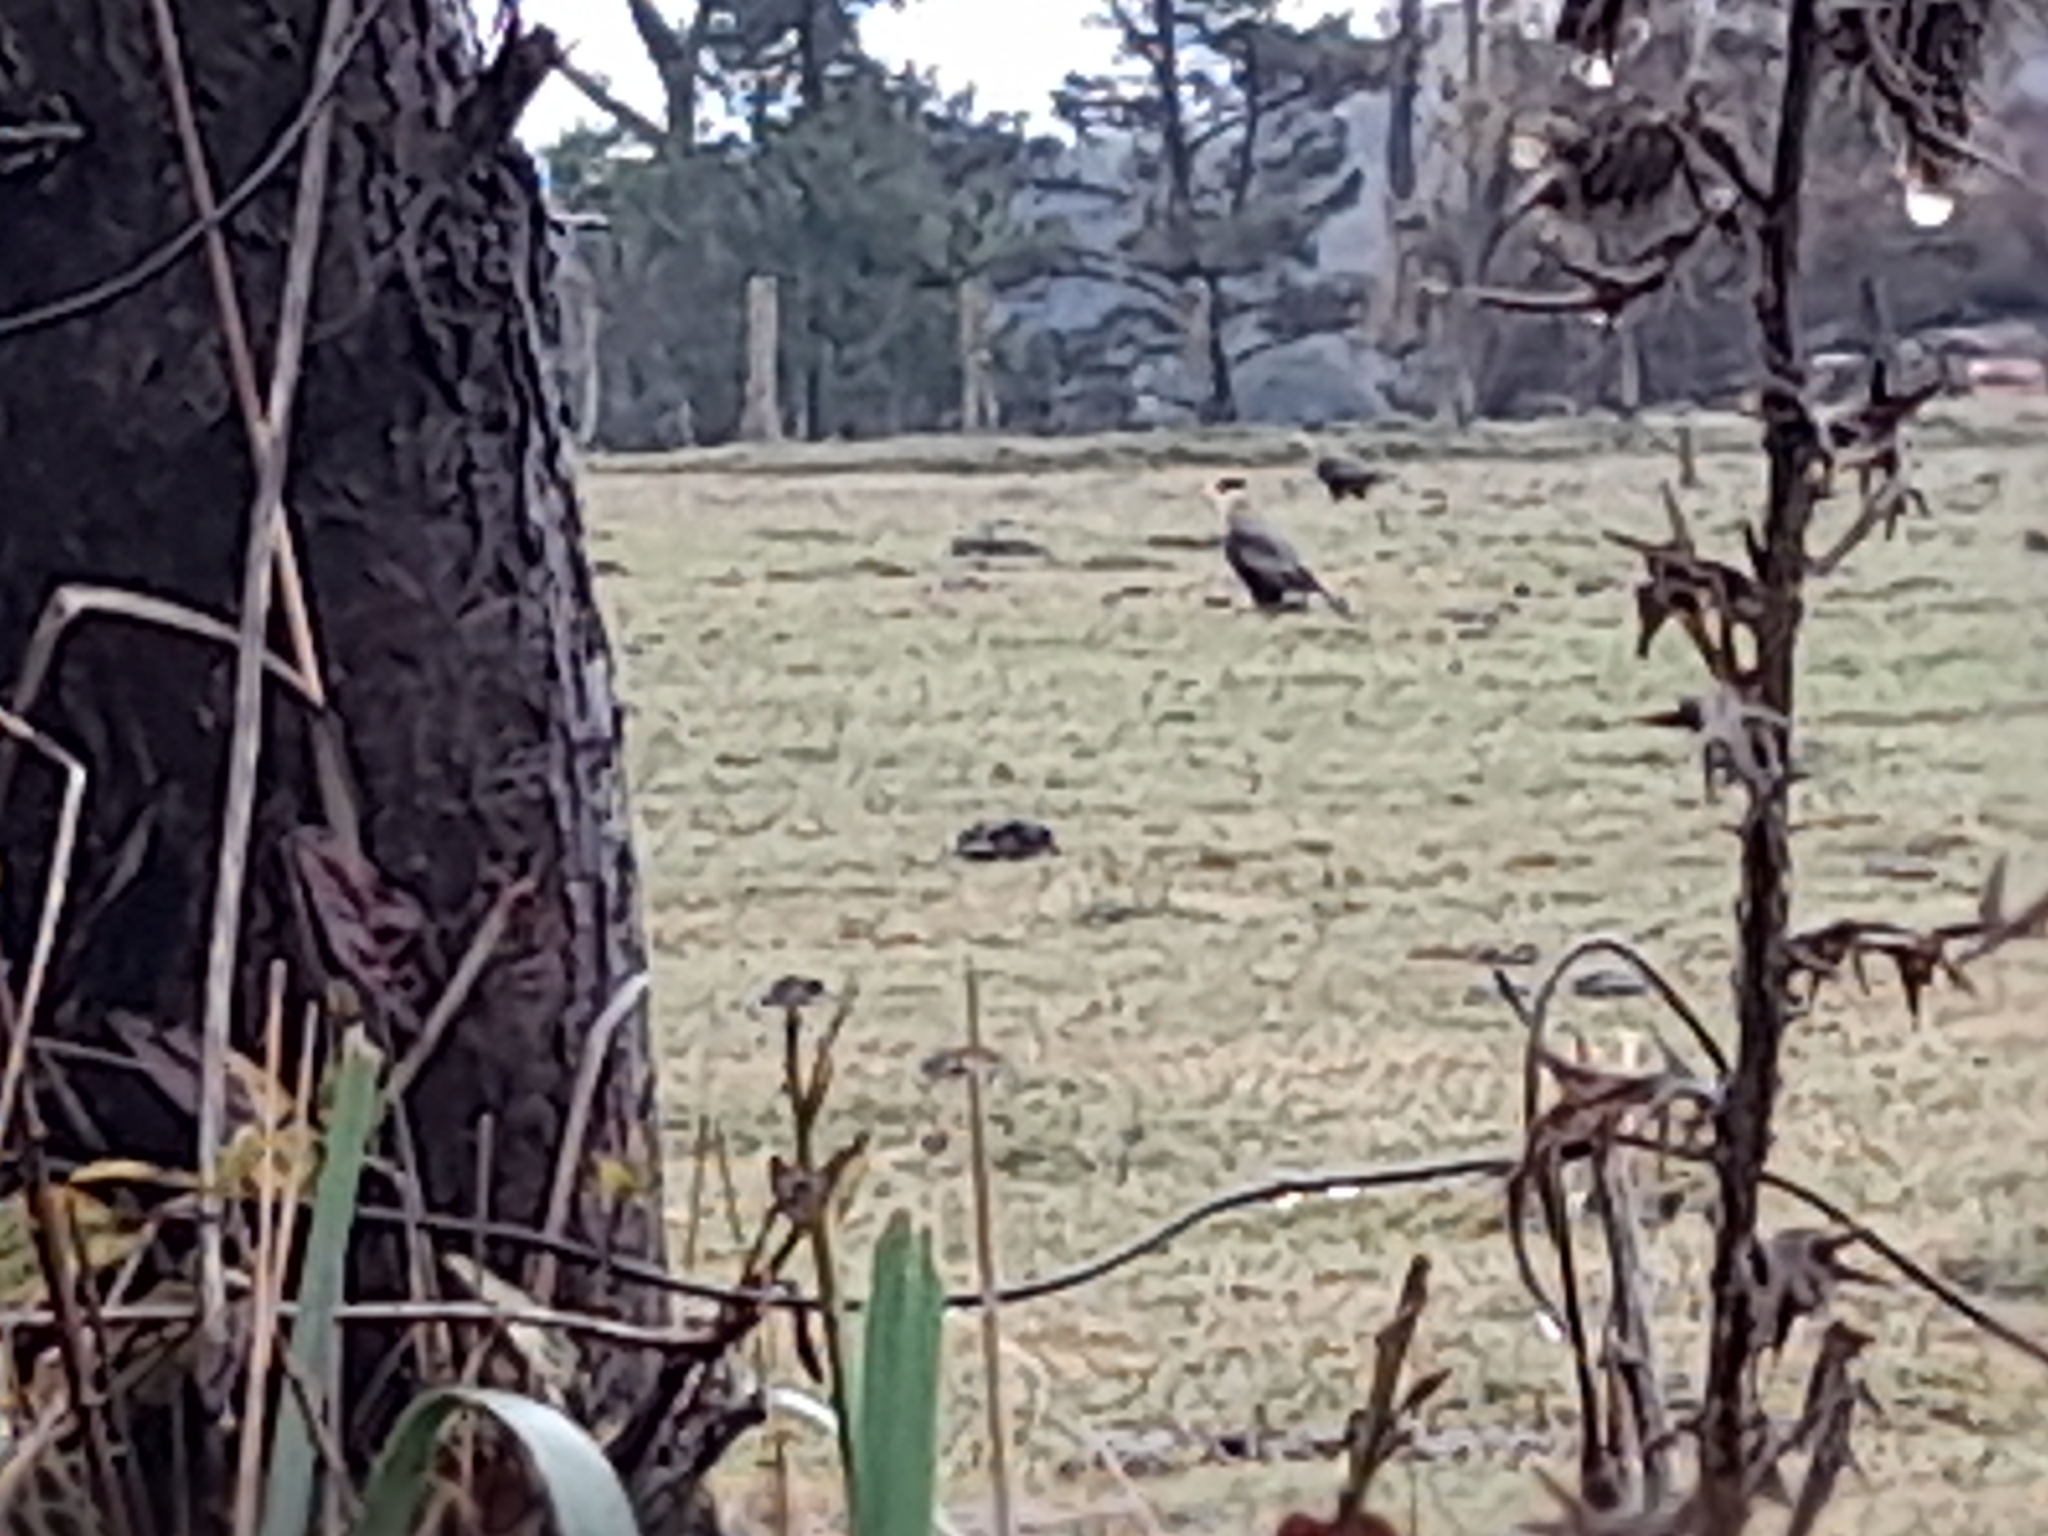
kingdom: Animalia
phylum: Chordata
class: Aves
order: Falconiformes
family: Falconidae
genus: Caracara
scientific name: Caracara plancus
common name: Southern caracara
